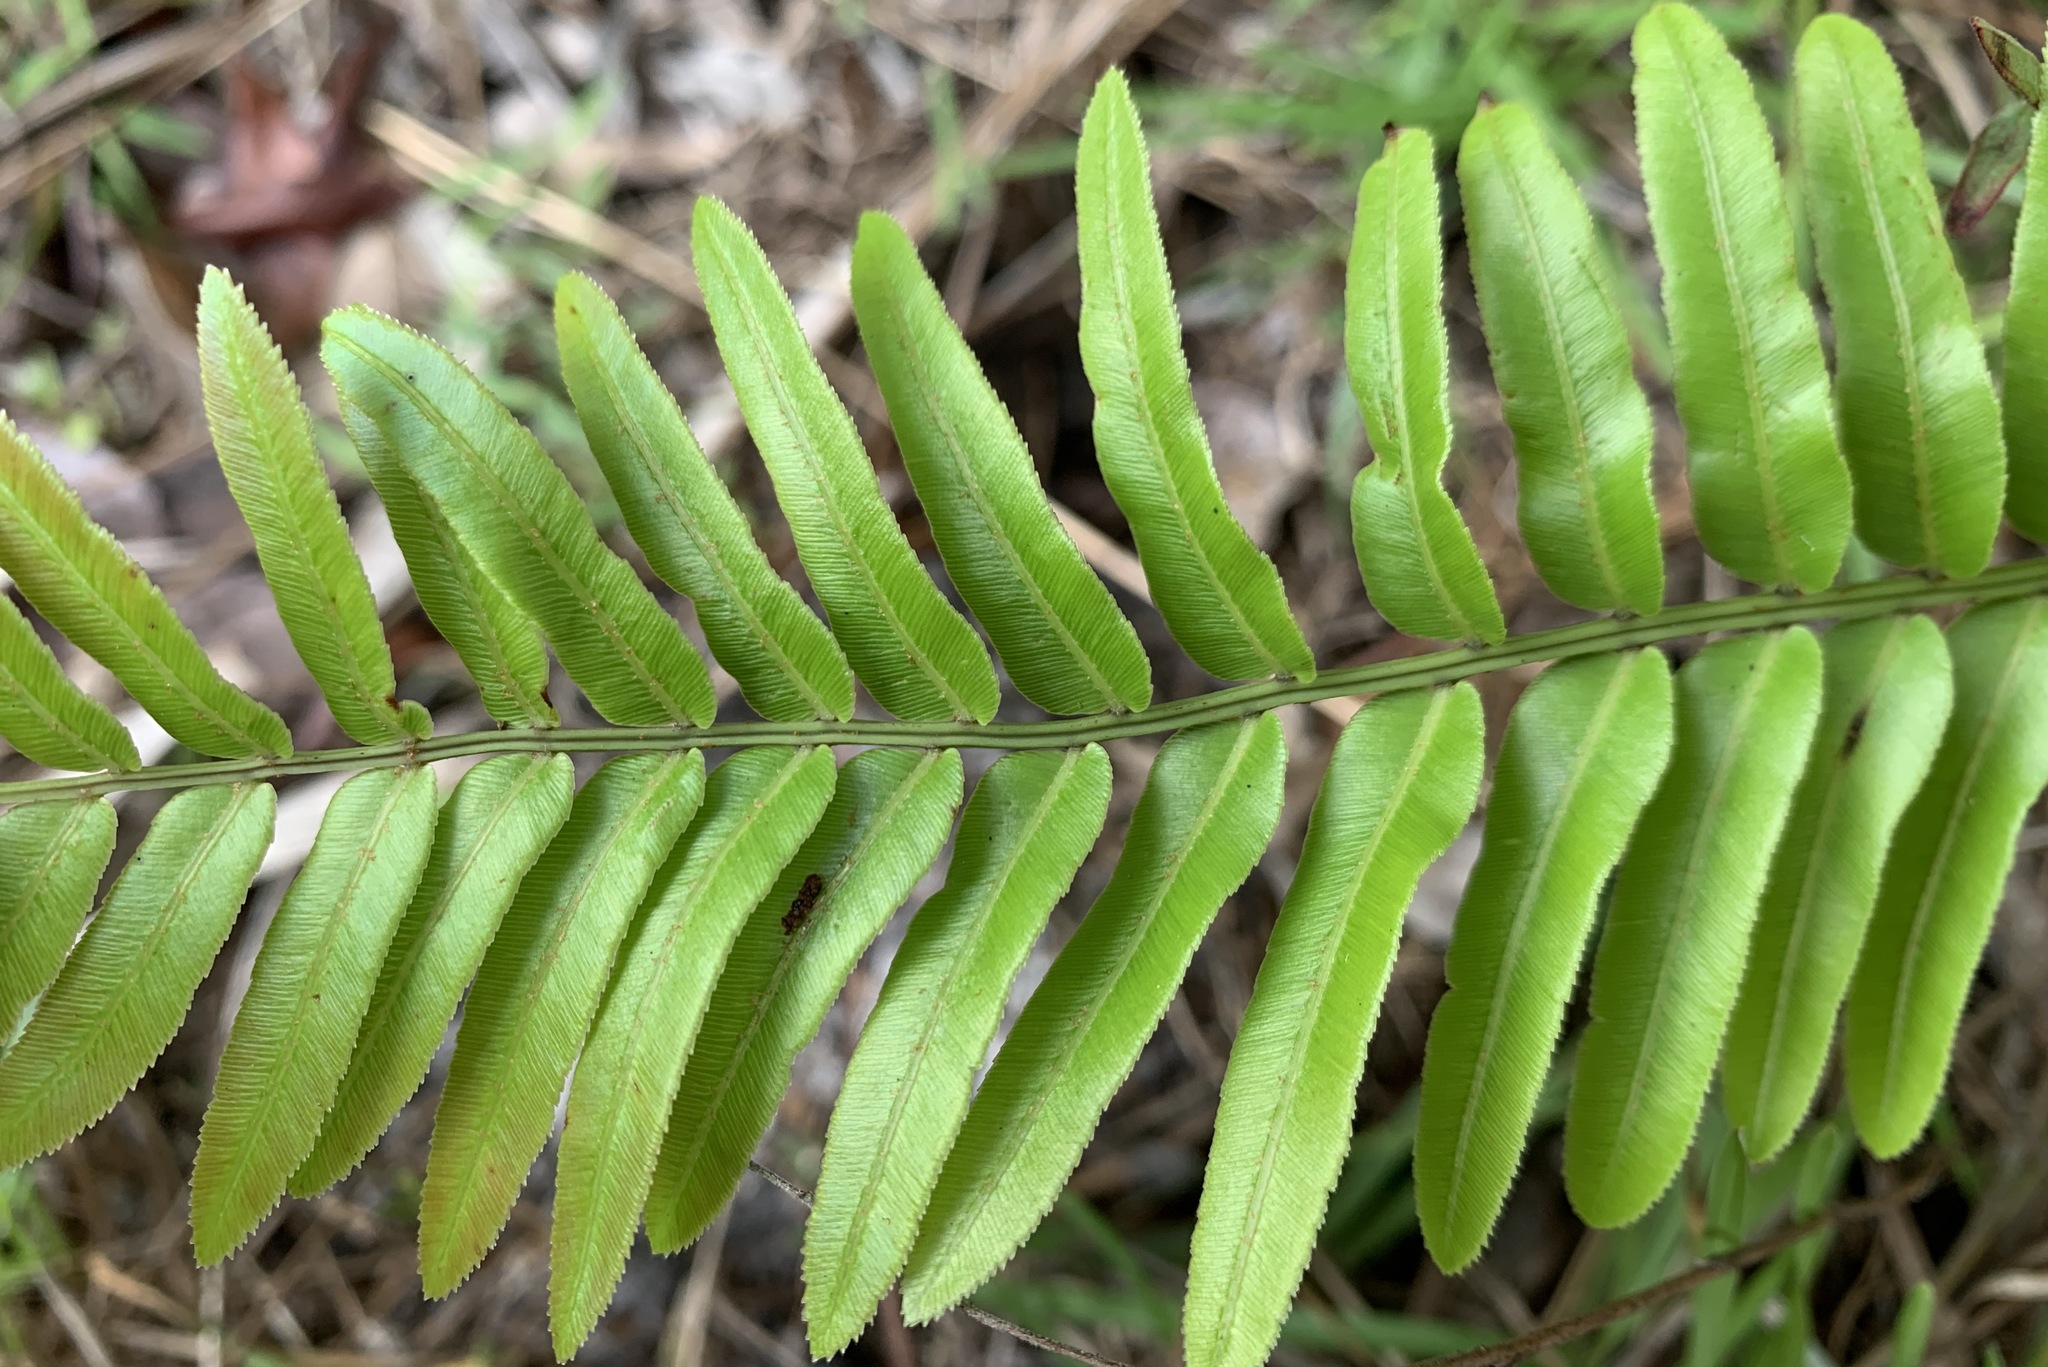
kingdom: Plantae
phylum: Tracheophyta
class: Polypodiopsida
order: Polypodiales
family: Blechnaceae
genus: Telmatoblechnum
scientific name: Telmatoblechnum serrulatum
